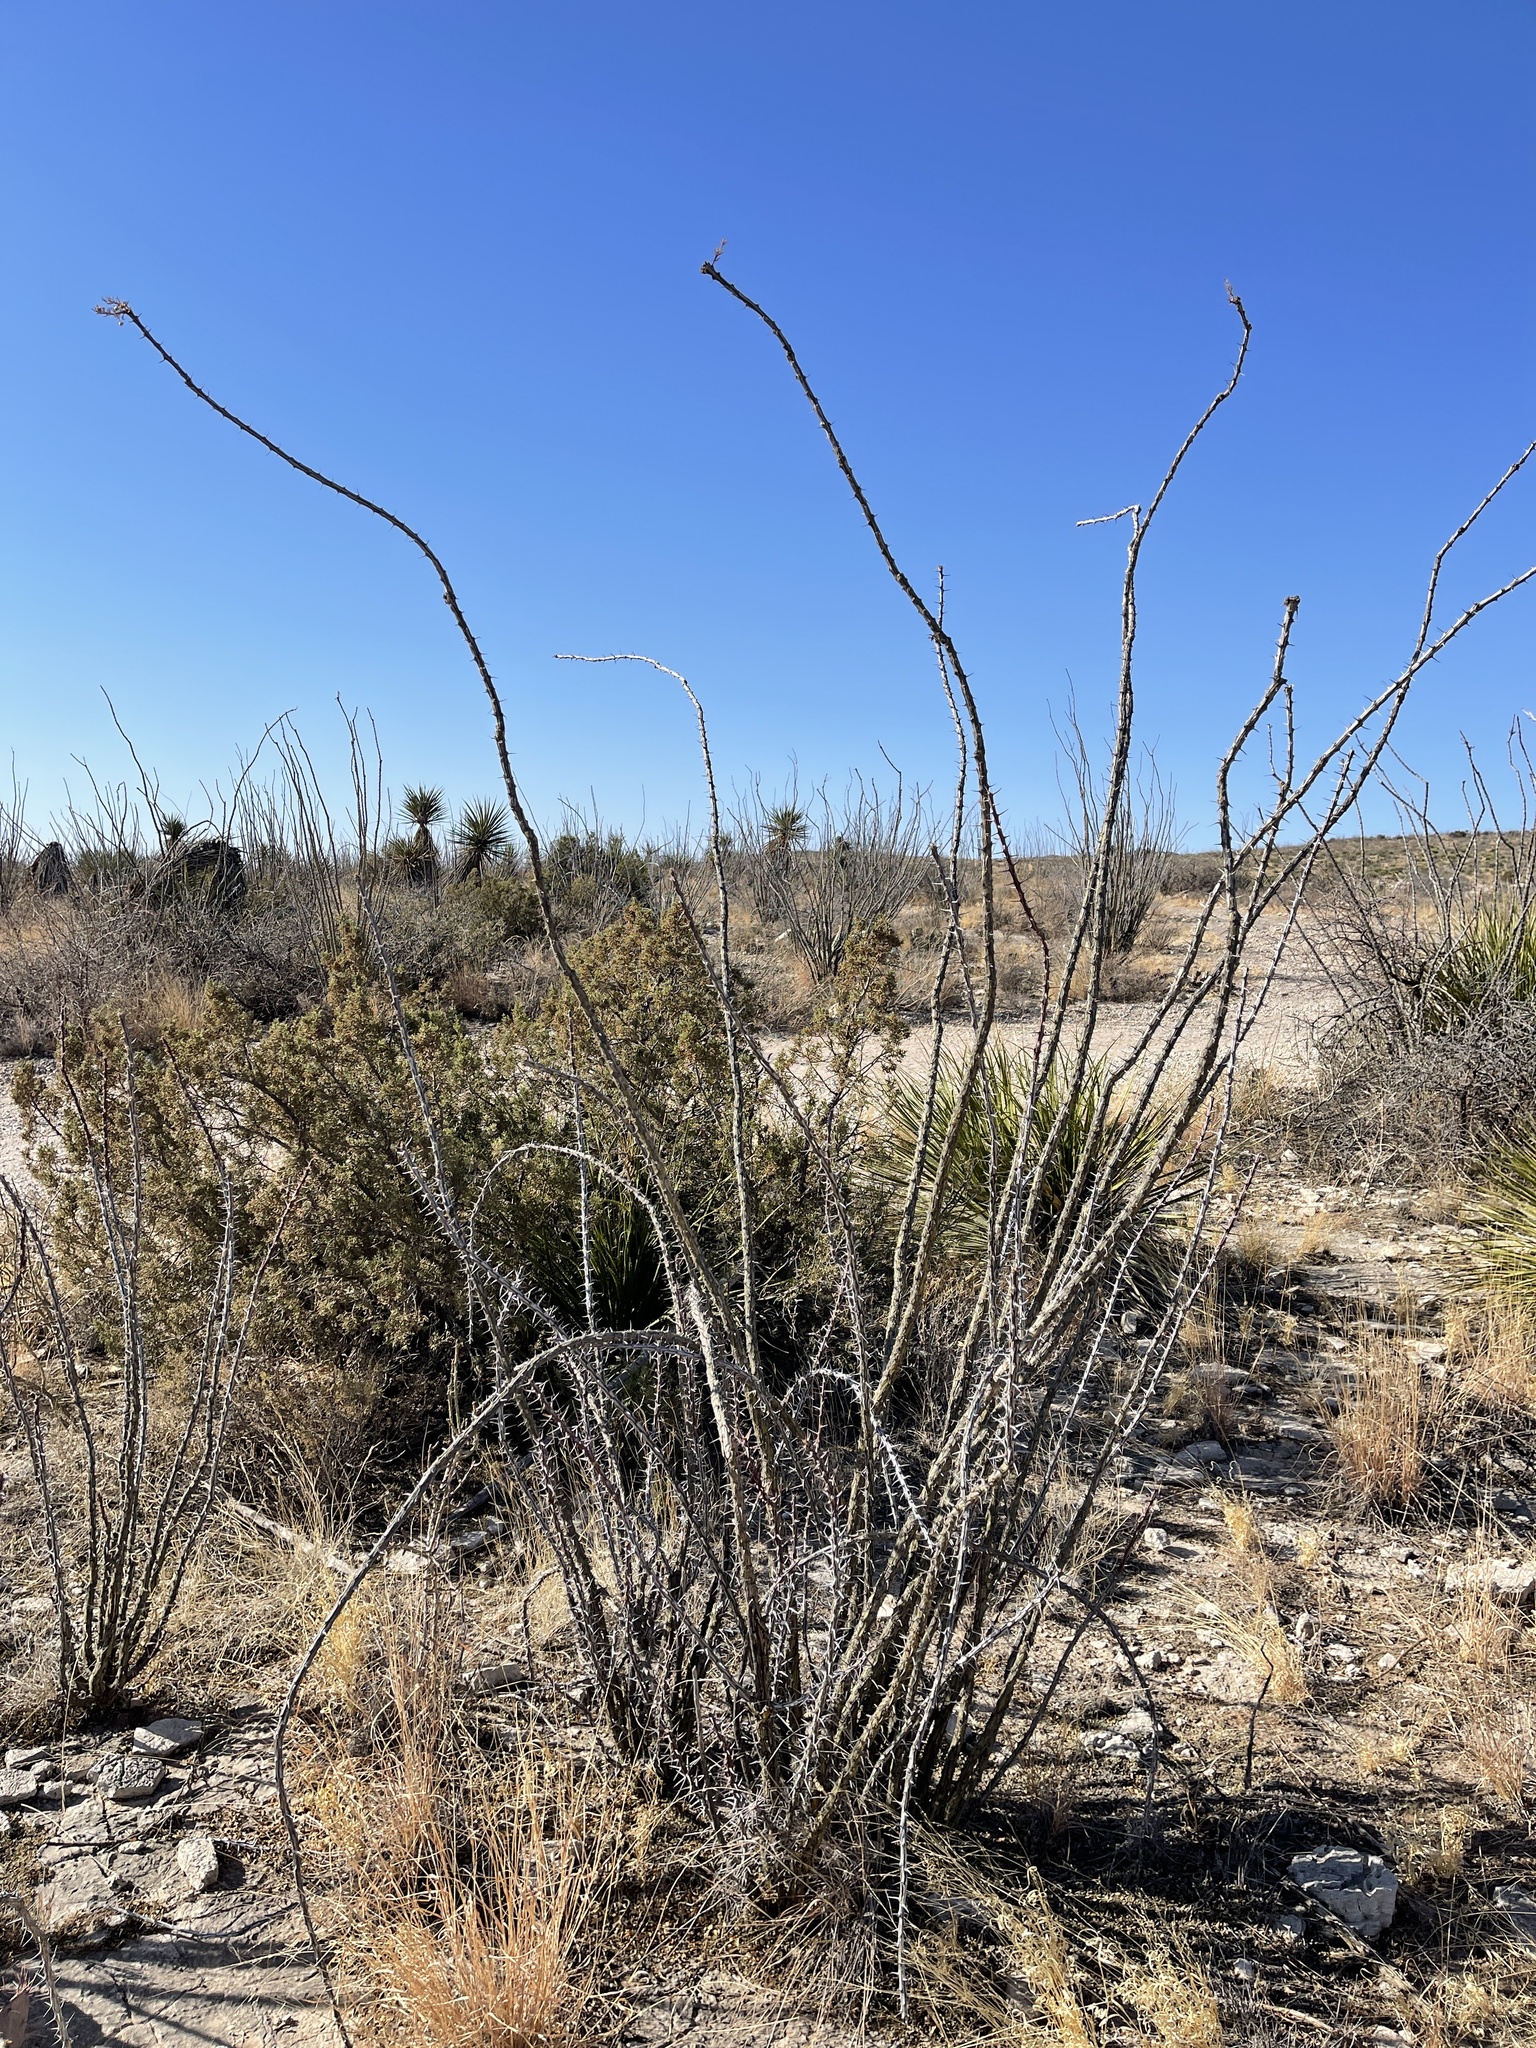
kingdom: Plantae
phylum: Tracheophyta
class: Magnoliopsida
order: Ericales
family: Fouquieriaceae
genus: Fouquieria
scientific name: Fouquieria splendens
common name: Vine-cactus
